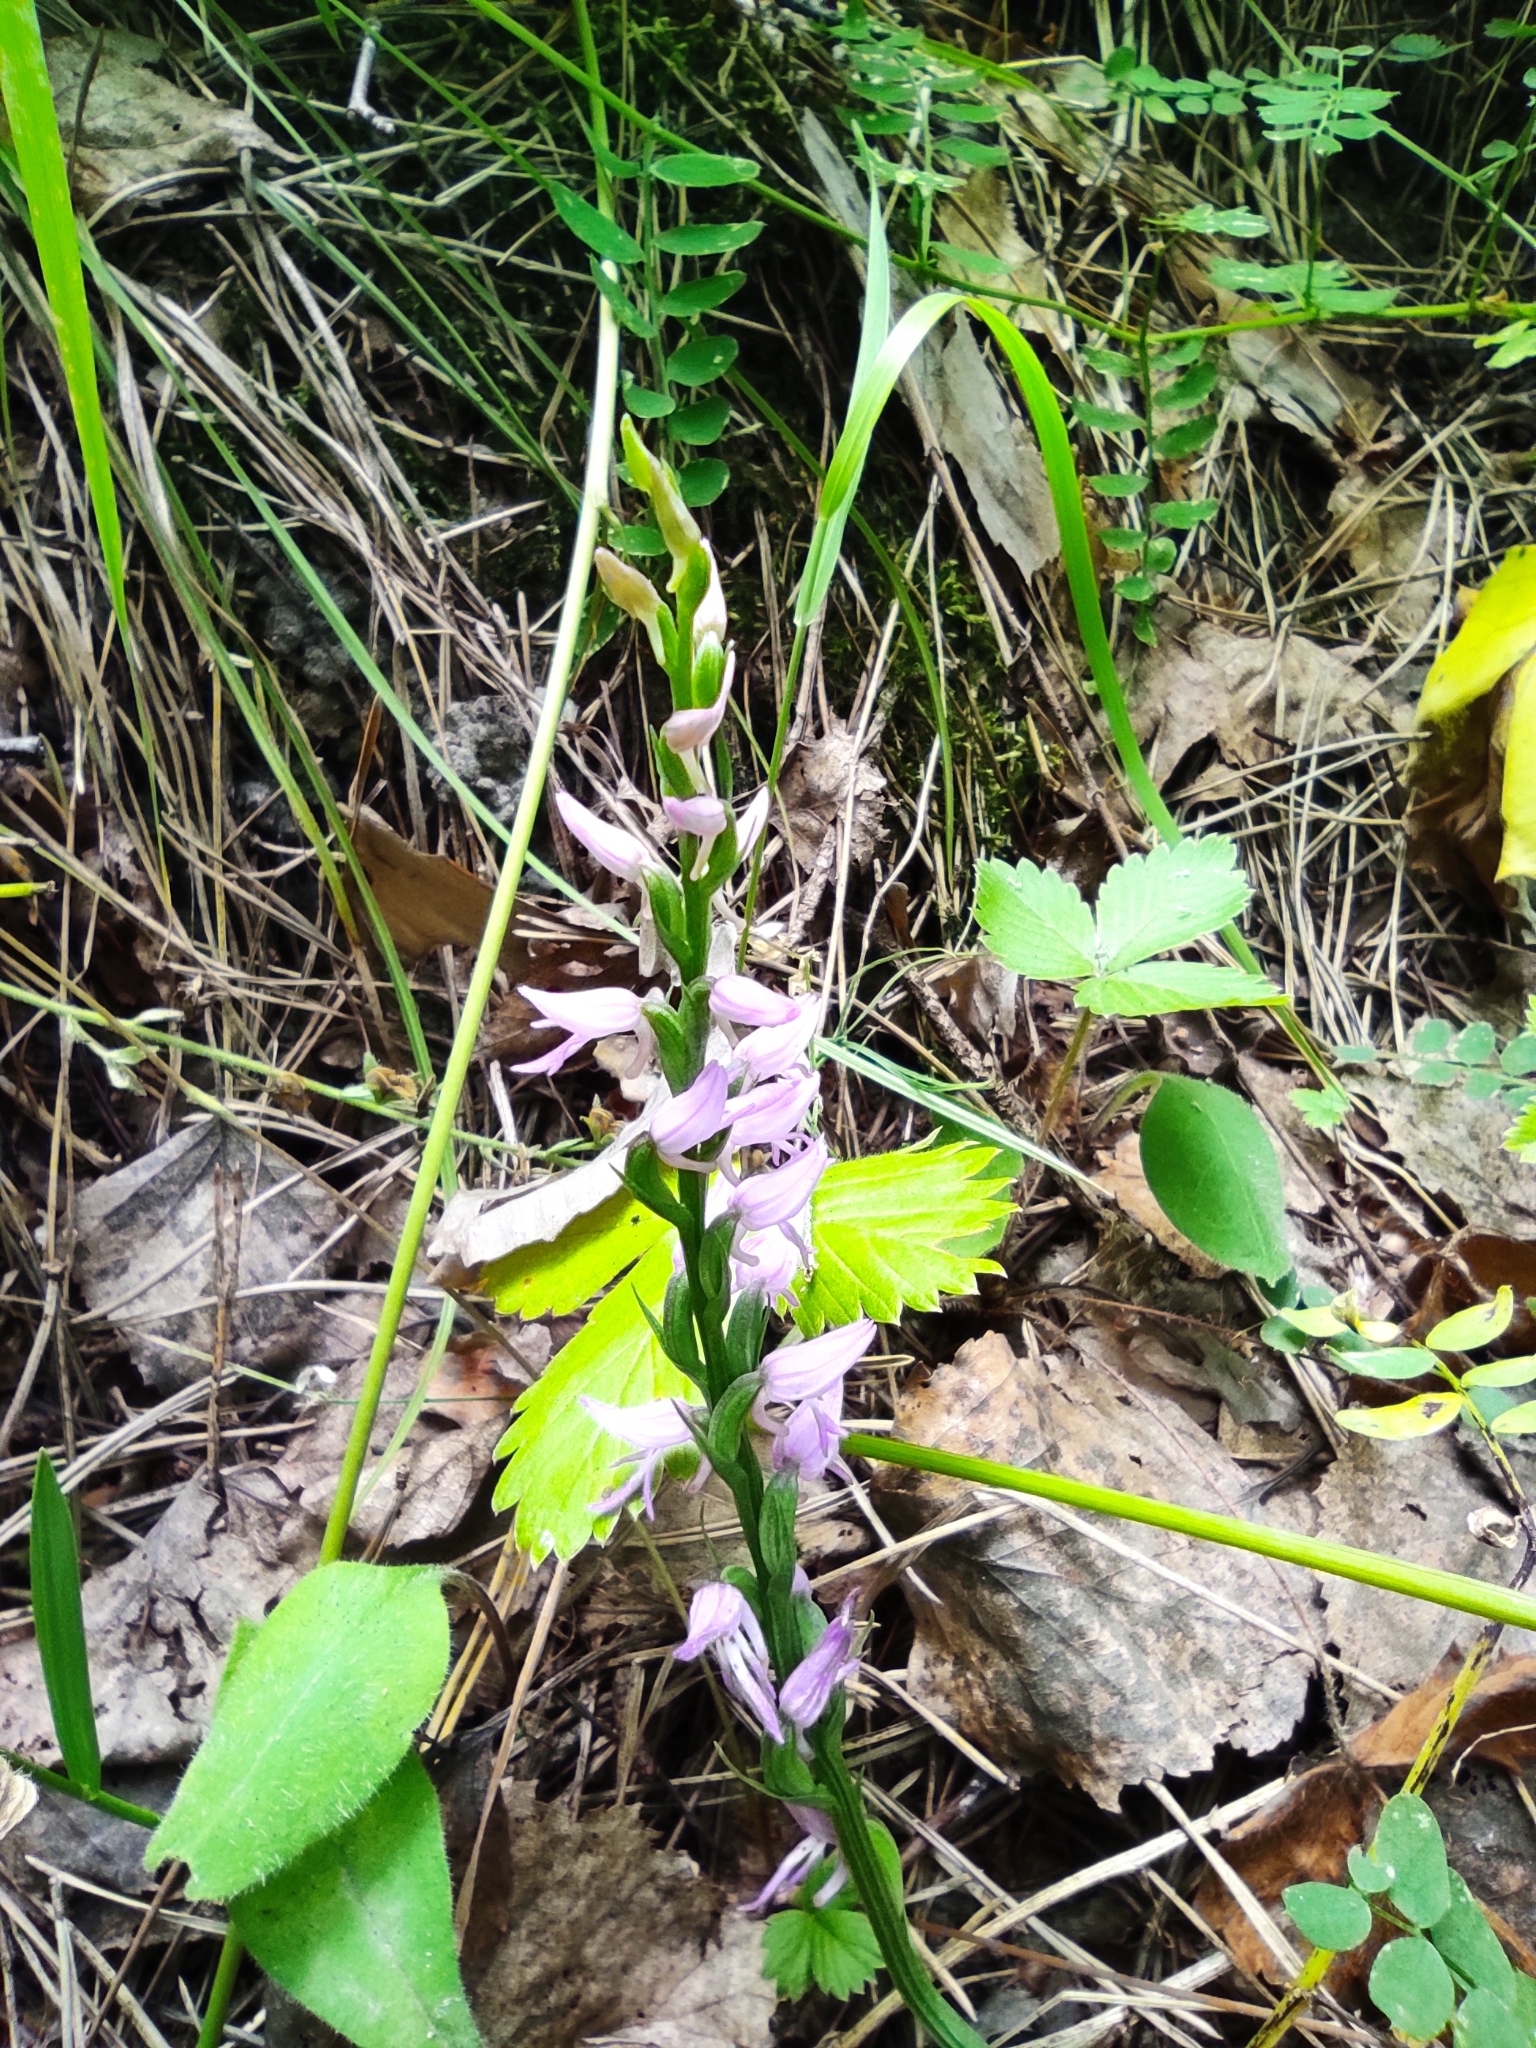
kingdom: Plantae
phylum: Tracheophyta
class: Liliopsida
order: Asparagales
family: Orchidaceae
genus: Hemipilia
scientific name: Hemipilia cucullata
